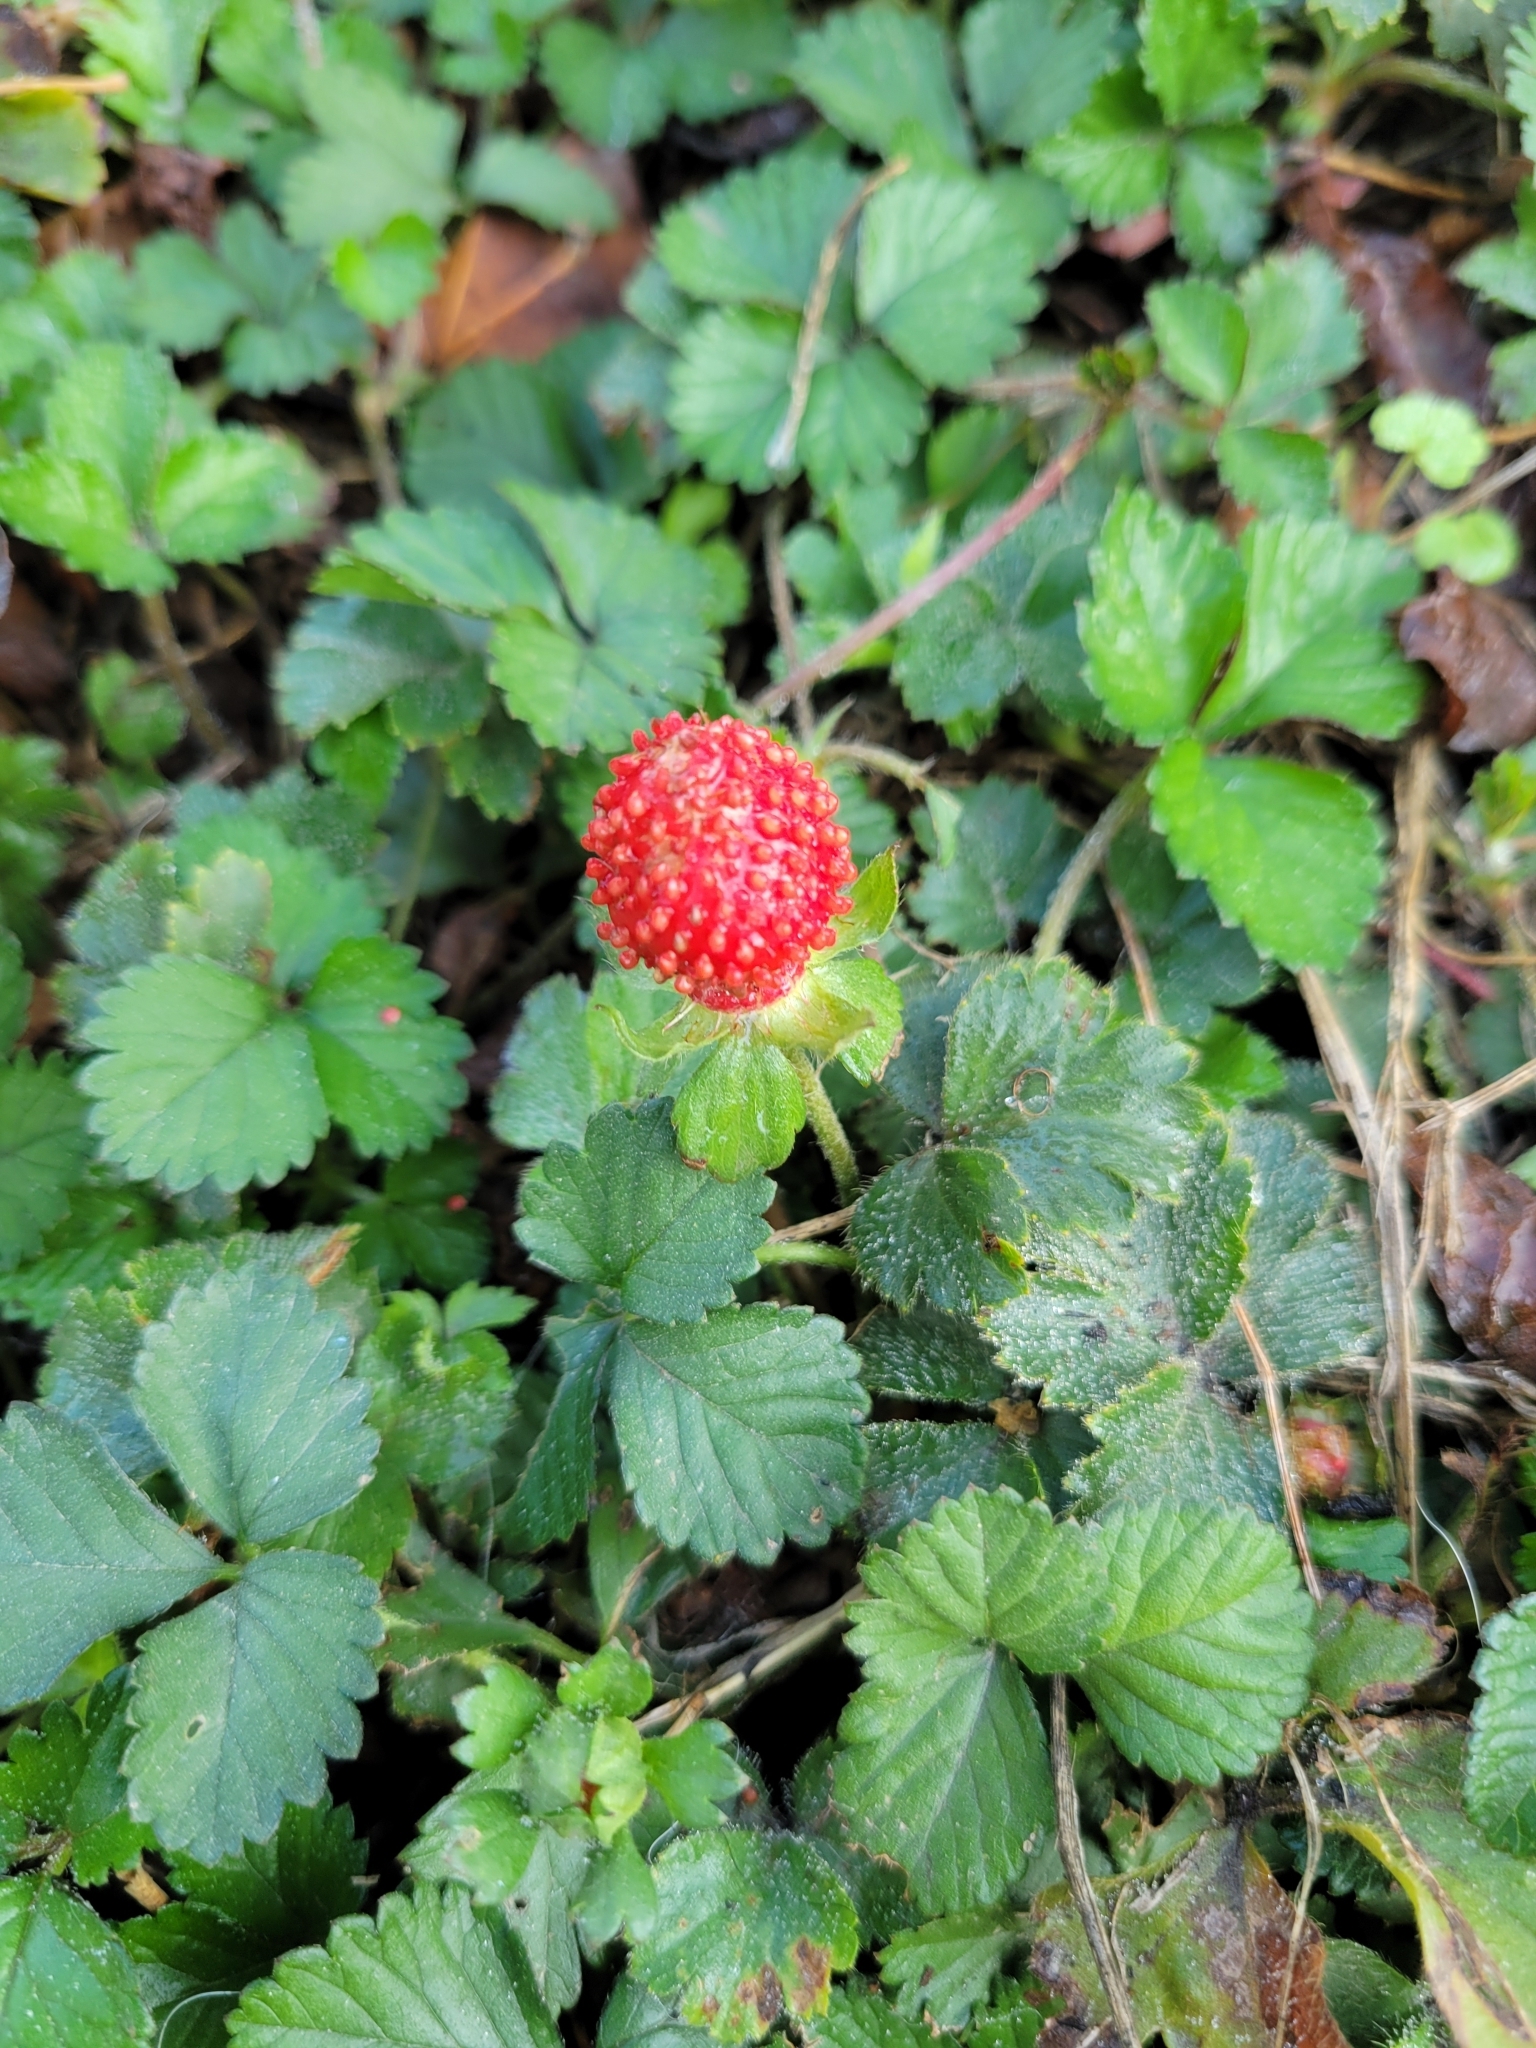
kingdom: Plantae
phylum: Tracheophyta
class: Magnoliopsida
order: Rosales
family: Rosaceae
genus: Potentilla
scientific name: Potentilla indica
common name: Yellow-flowered strawberry
